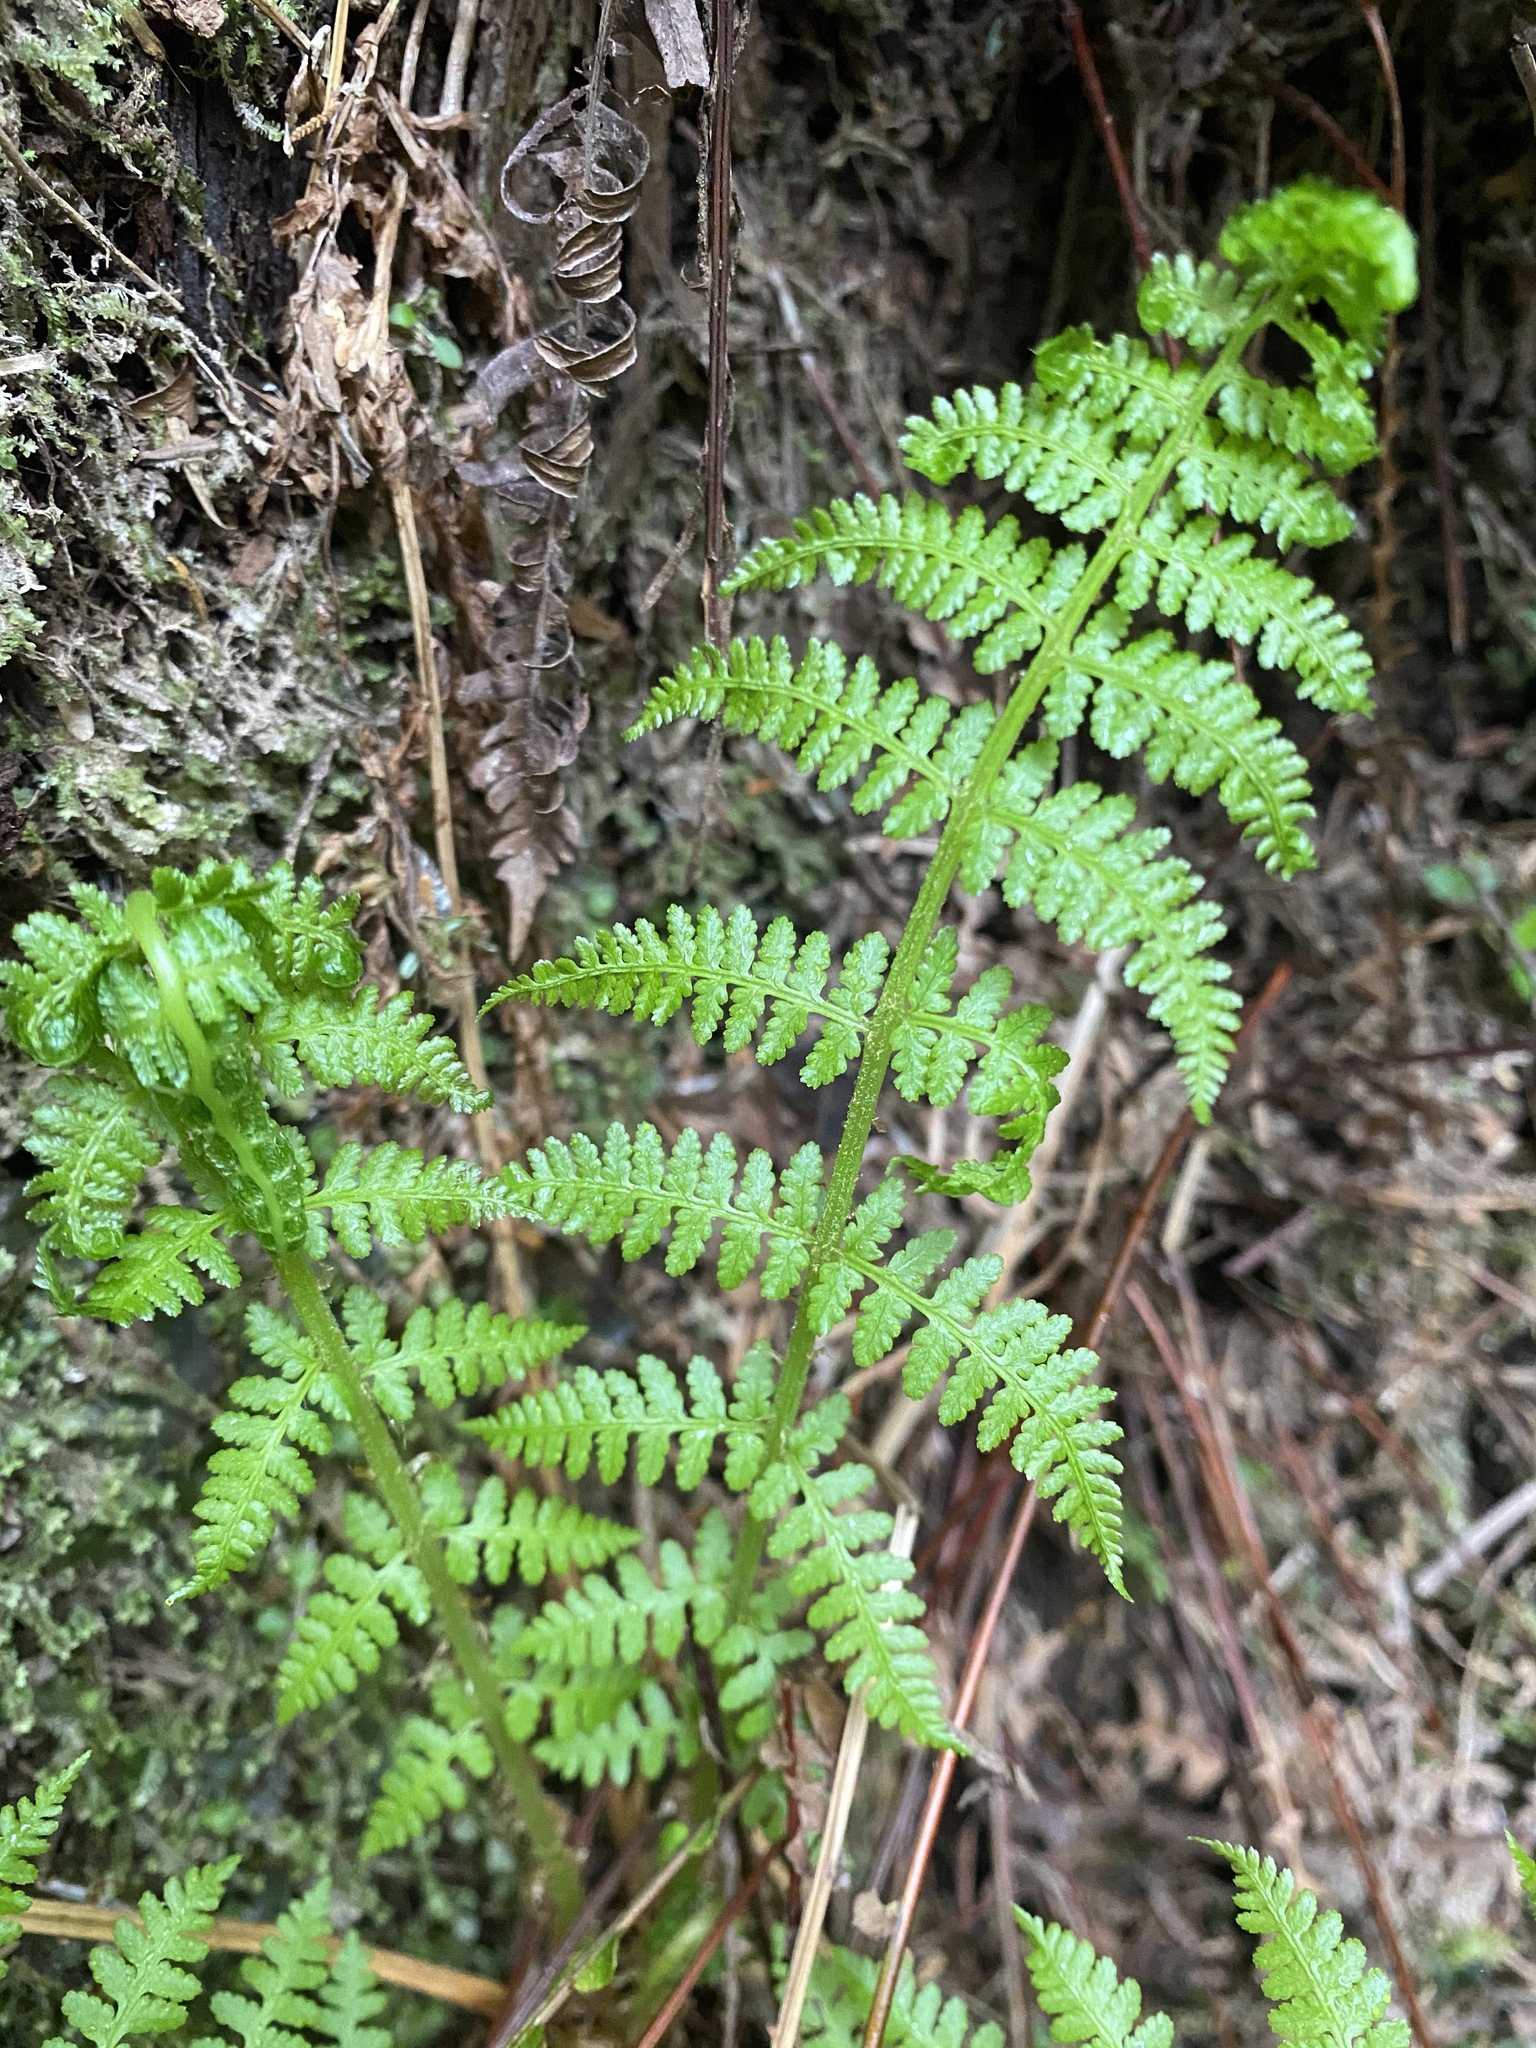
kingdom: Plantae
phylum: Tracheophyta
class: Polypodiopsida
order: Polypodiales
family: Athyriaceae
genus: Athyrium
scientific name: Athyrium filix-femina
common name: Lady fern
